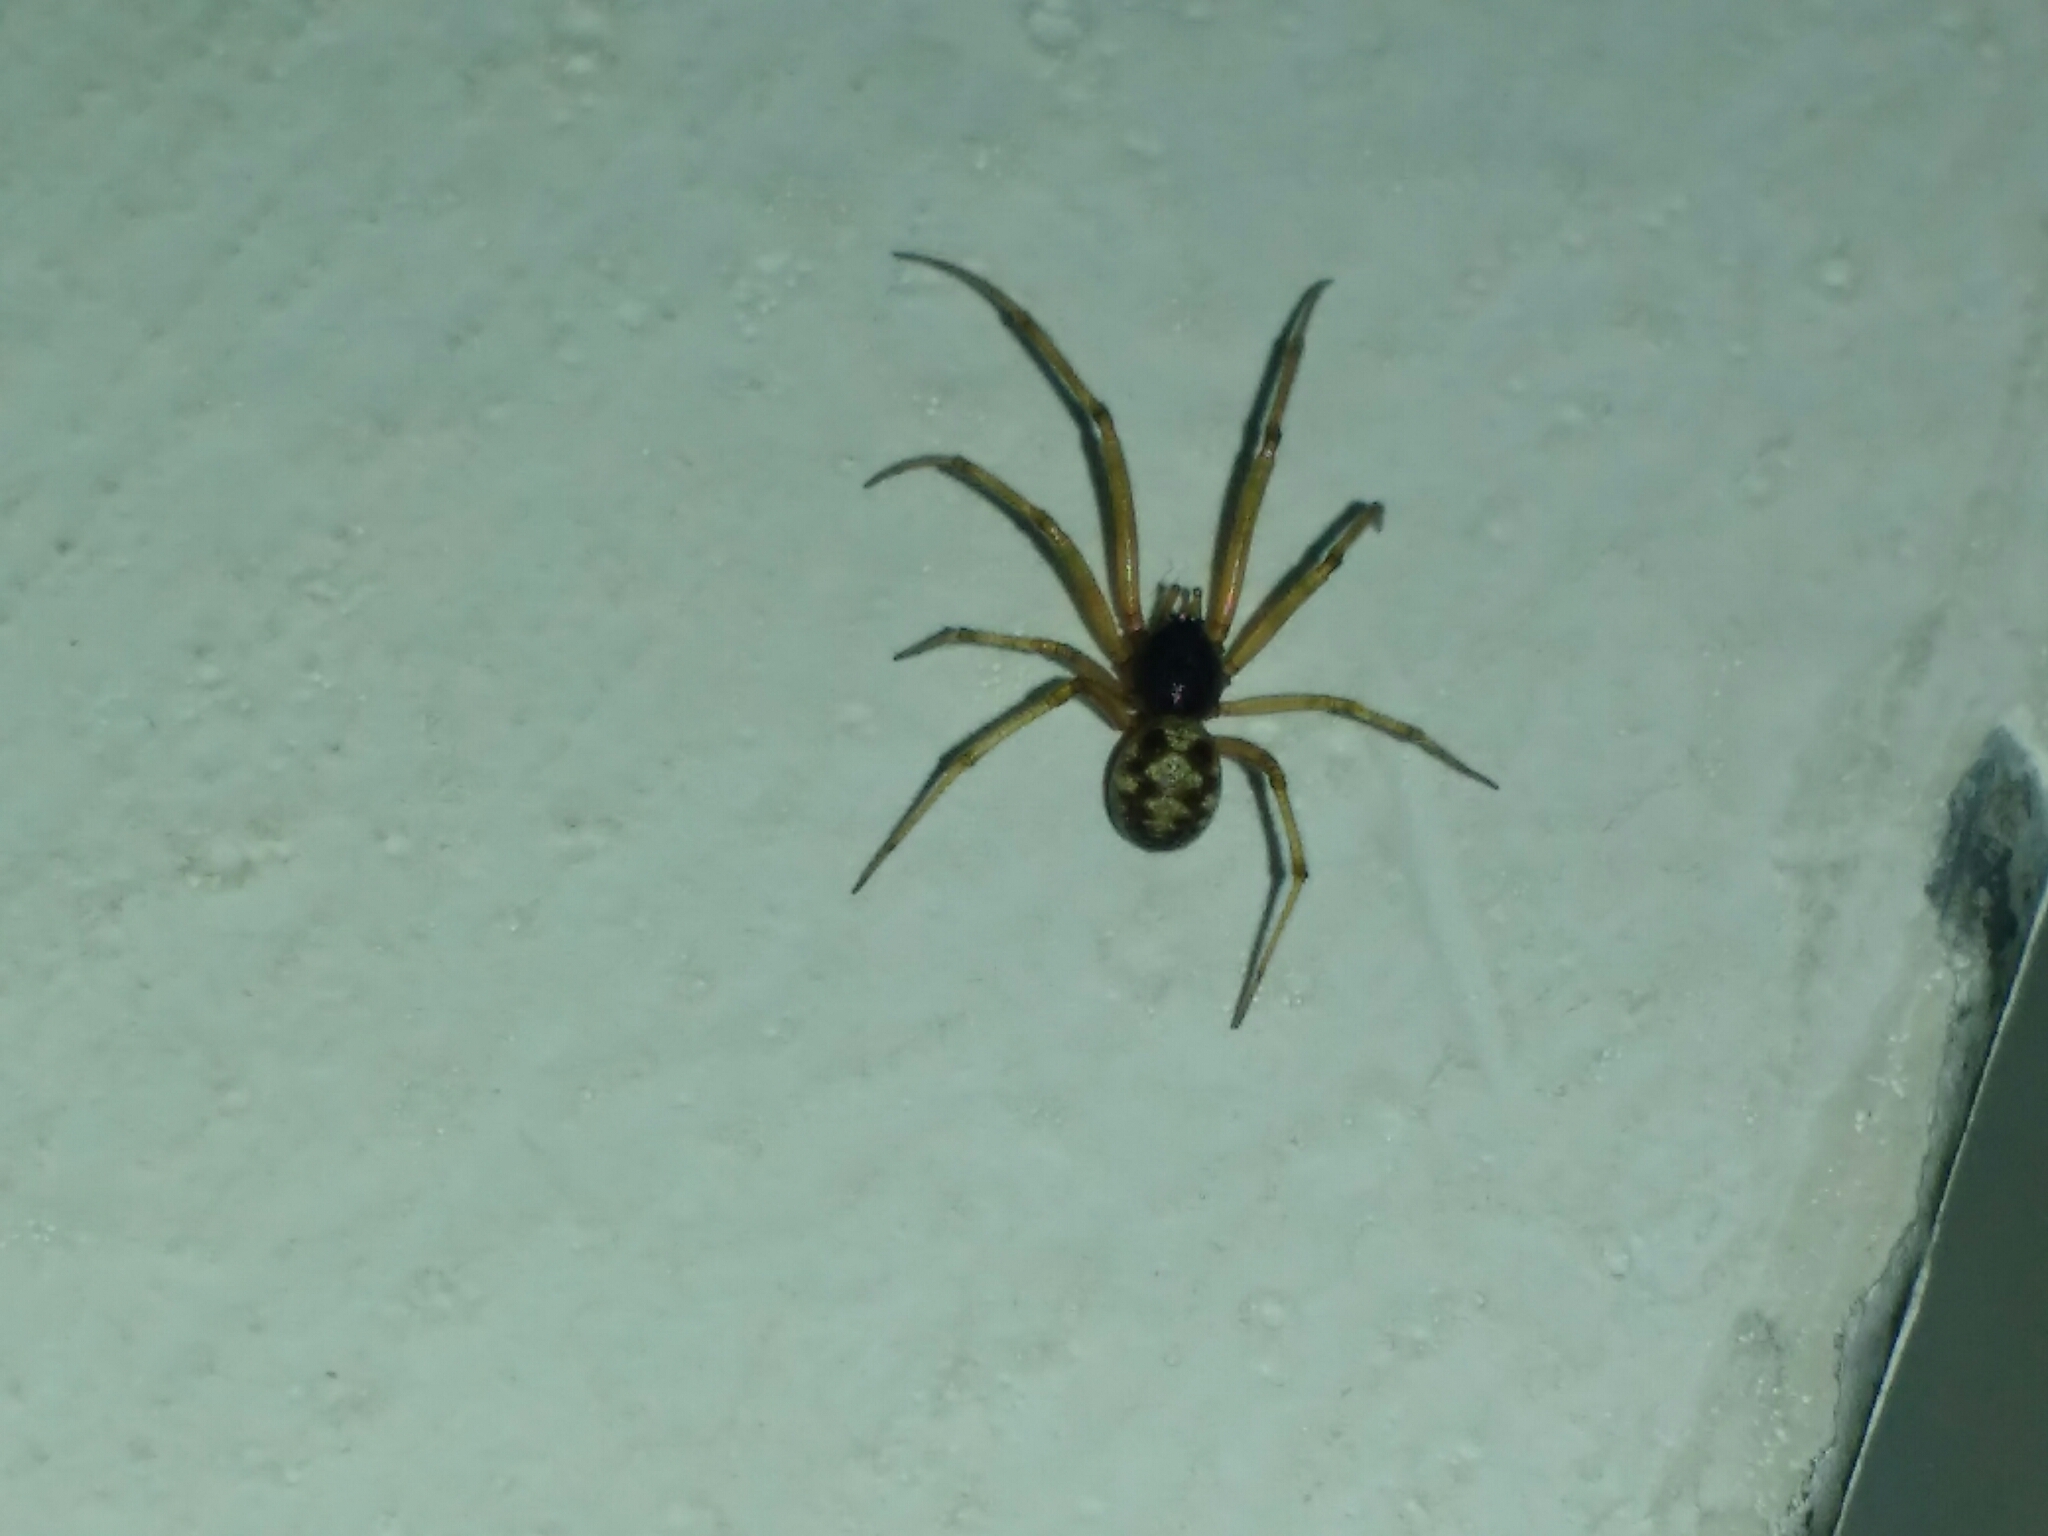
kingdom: Animalia
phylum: Arthropoda
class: Arachnida
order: Araneae
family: Theridiidae
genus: Steatoda
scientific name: Steatoda triangulosa
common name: Triangulate bud spider
